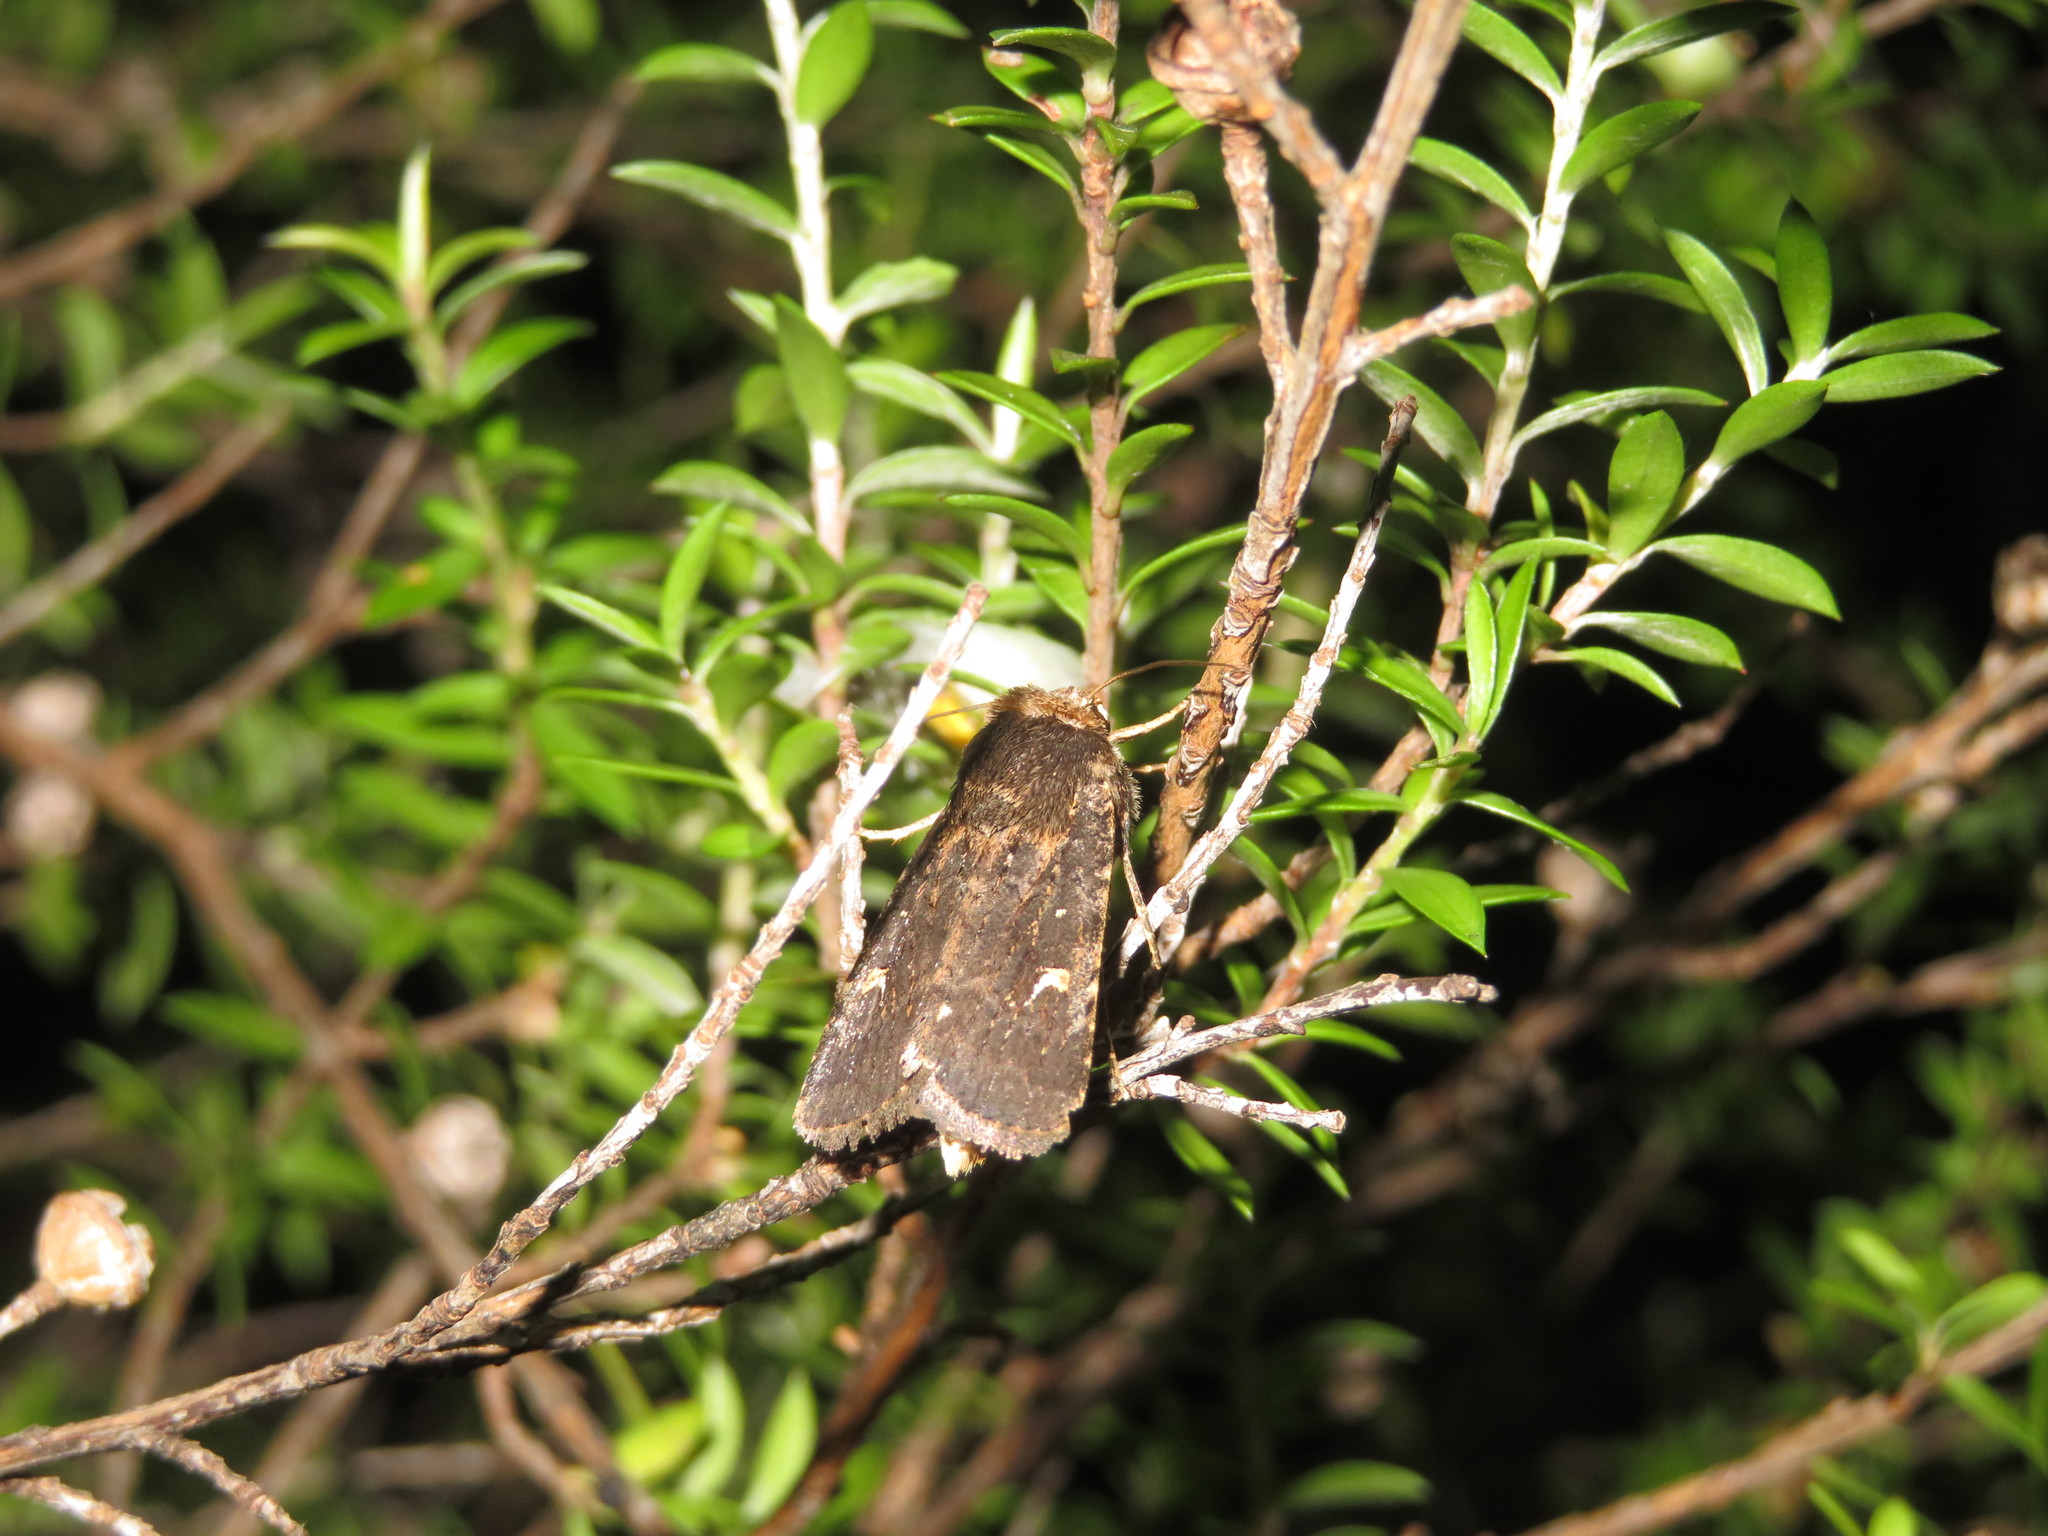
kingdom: Animalia
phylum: Arthropoda
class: Insecta
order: Lepidoptera
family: Noctuidae
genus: Proteuxoa
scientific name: Proteuxoa tetronycha
